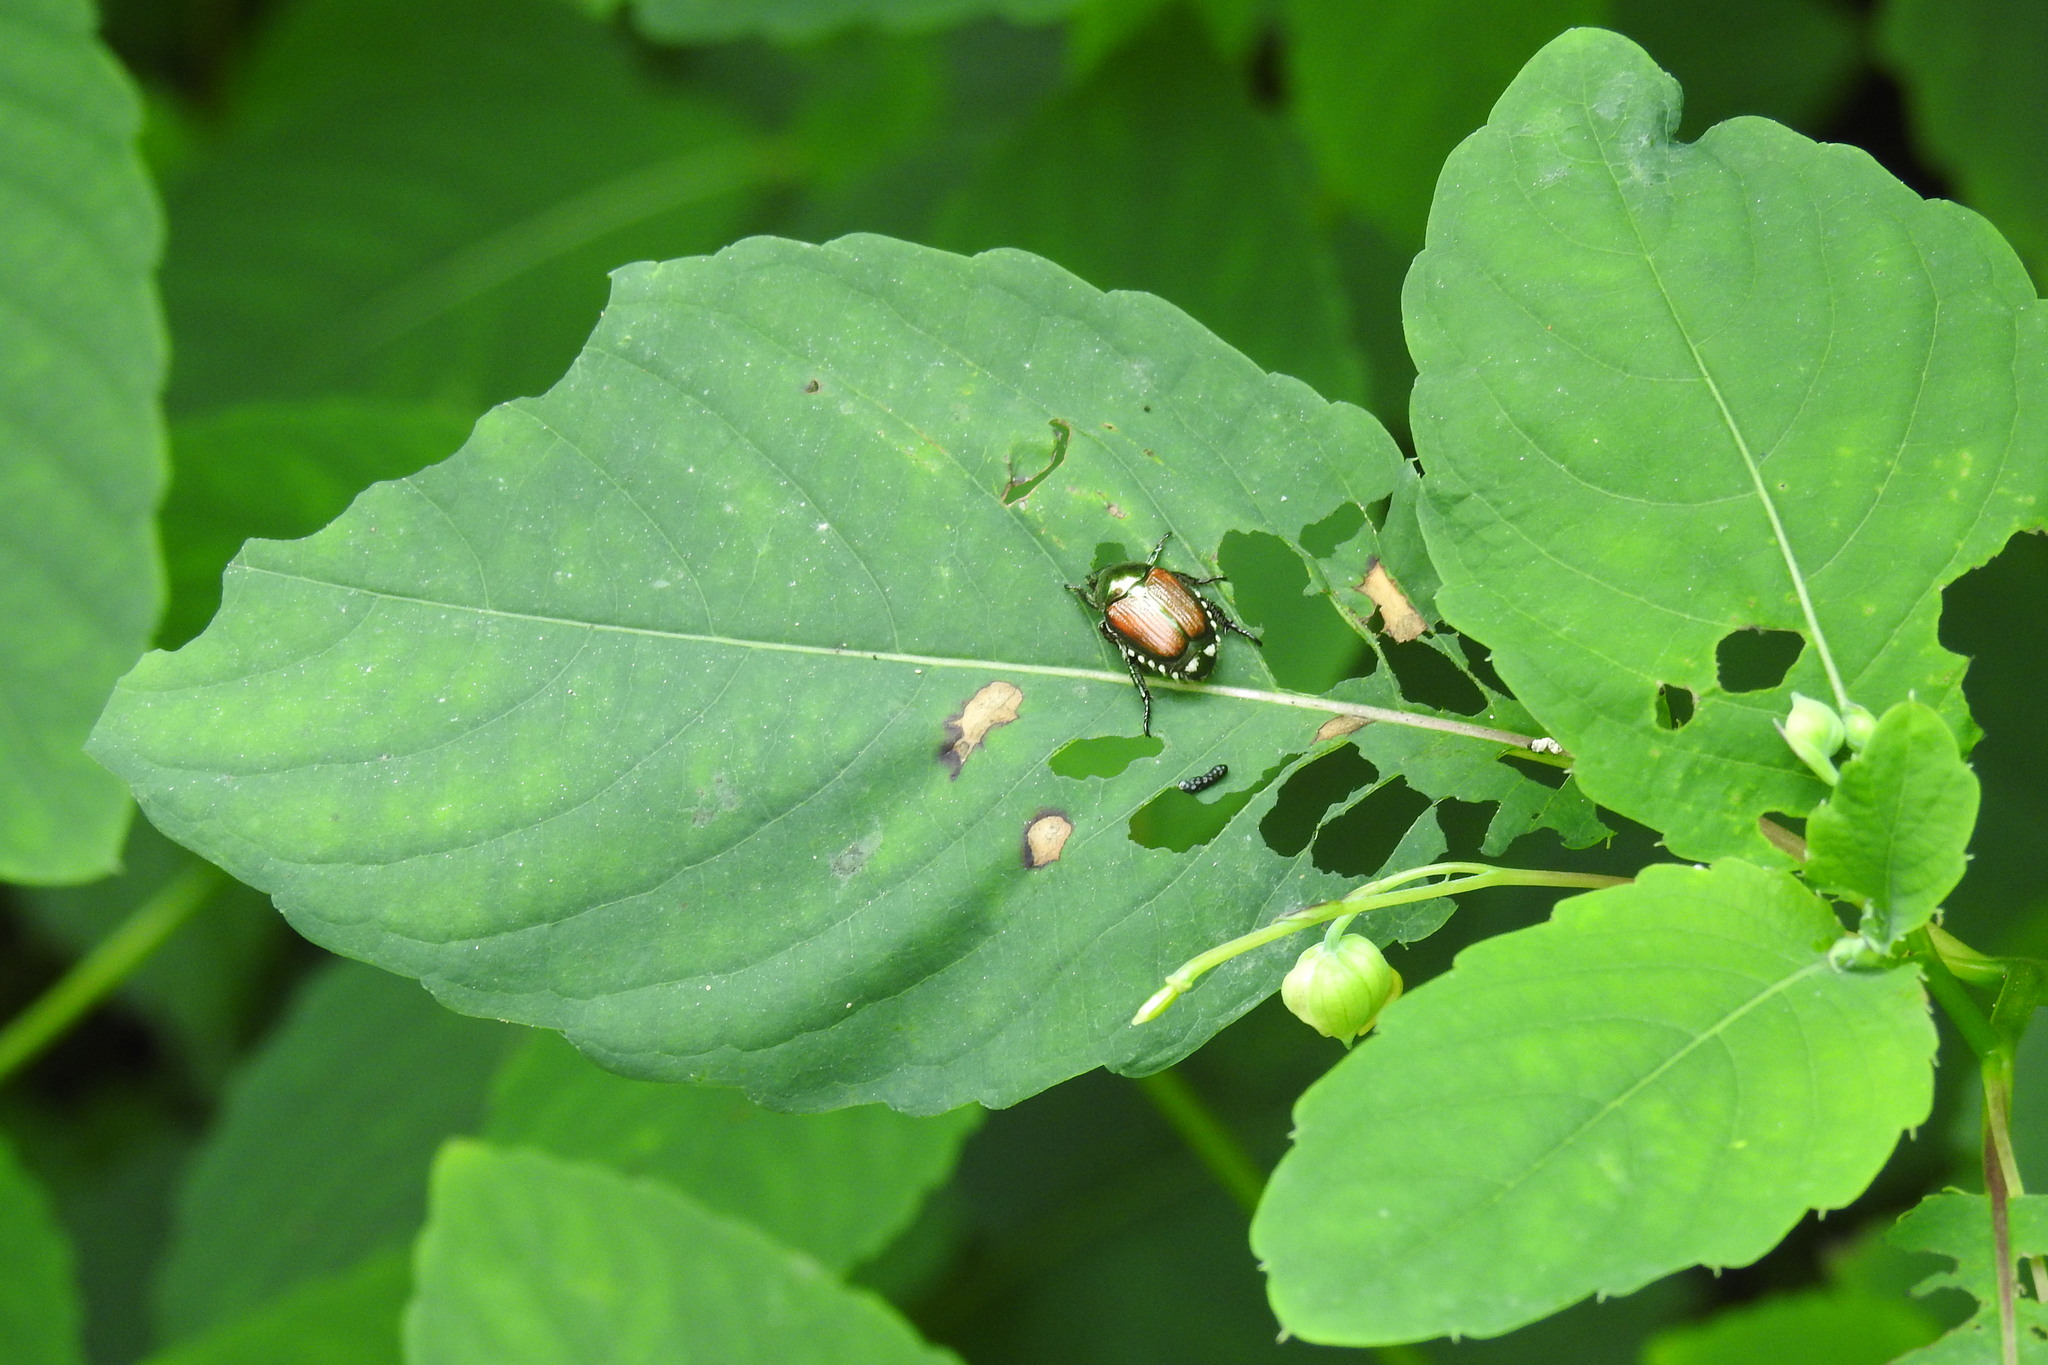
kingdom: Animalia
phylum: Arthropoda
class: Insecta
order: Coleoptera
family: Scarabaeidae
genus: Popillia
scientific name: Popillia japonica
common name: Japanese beetle
